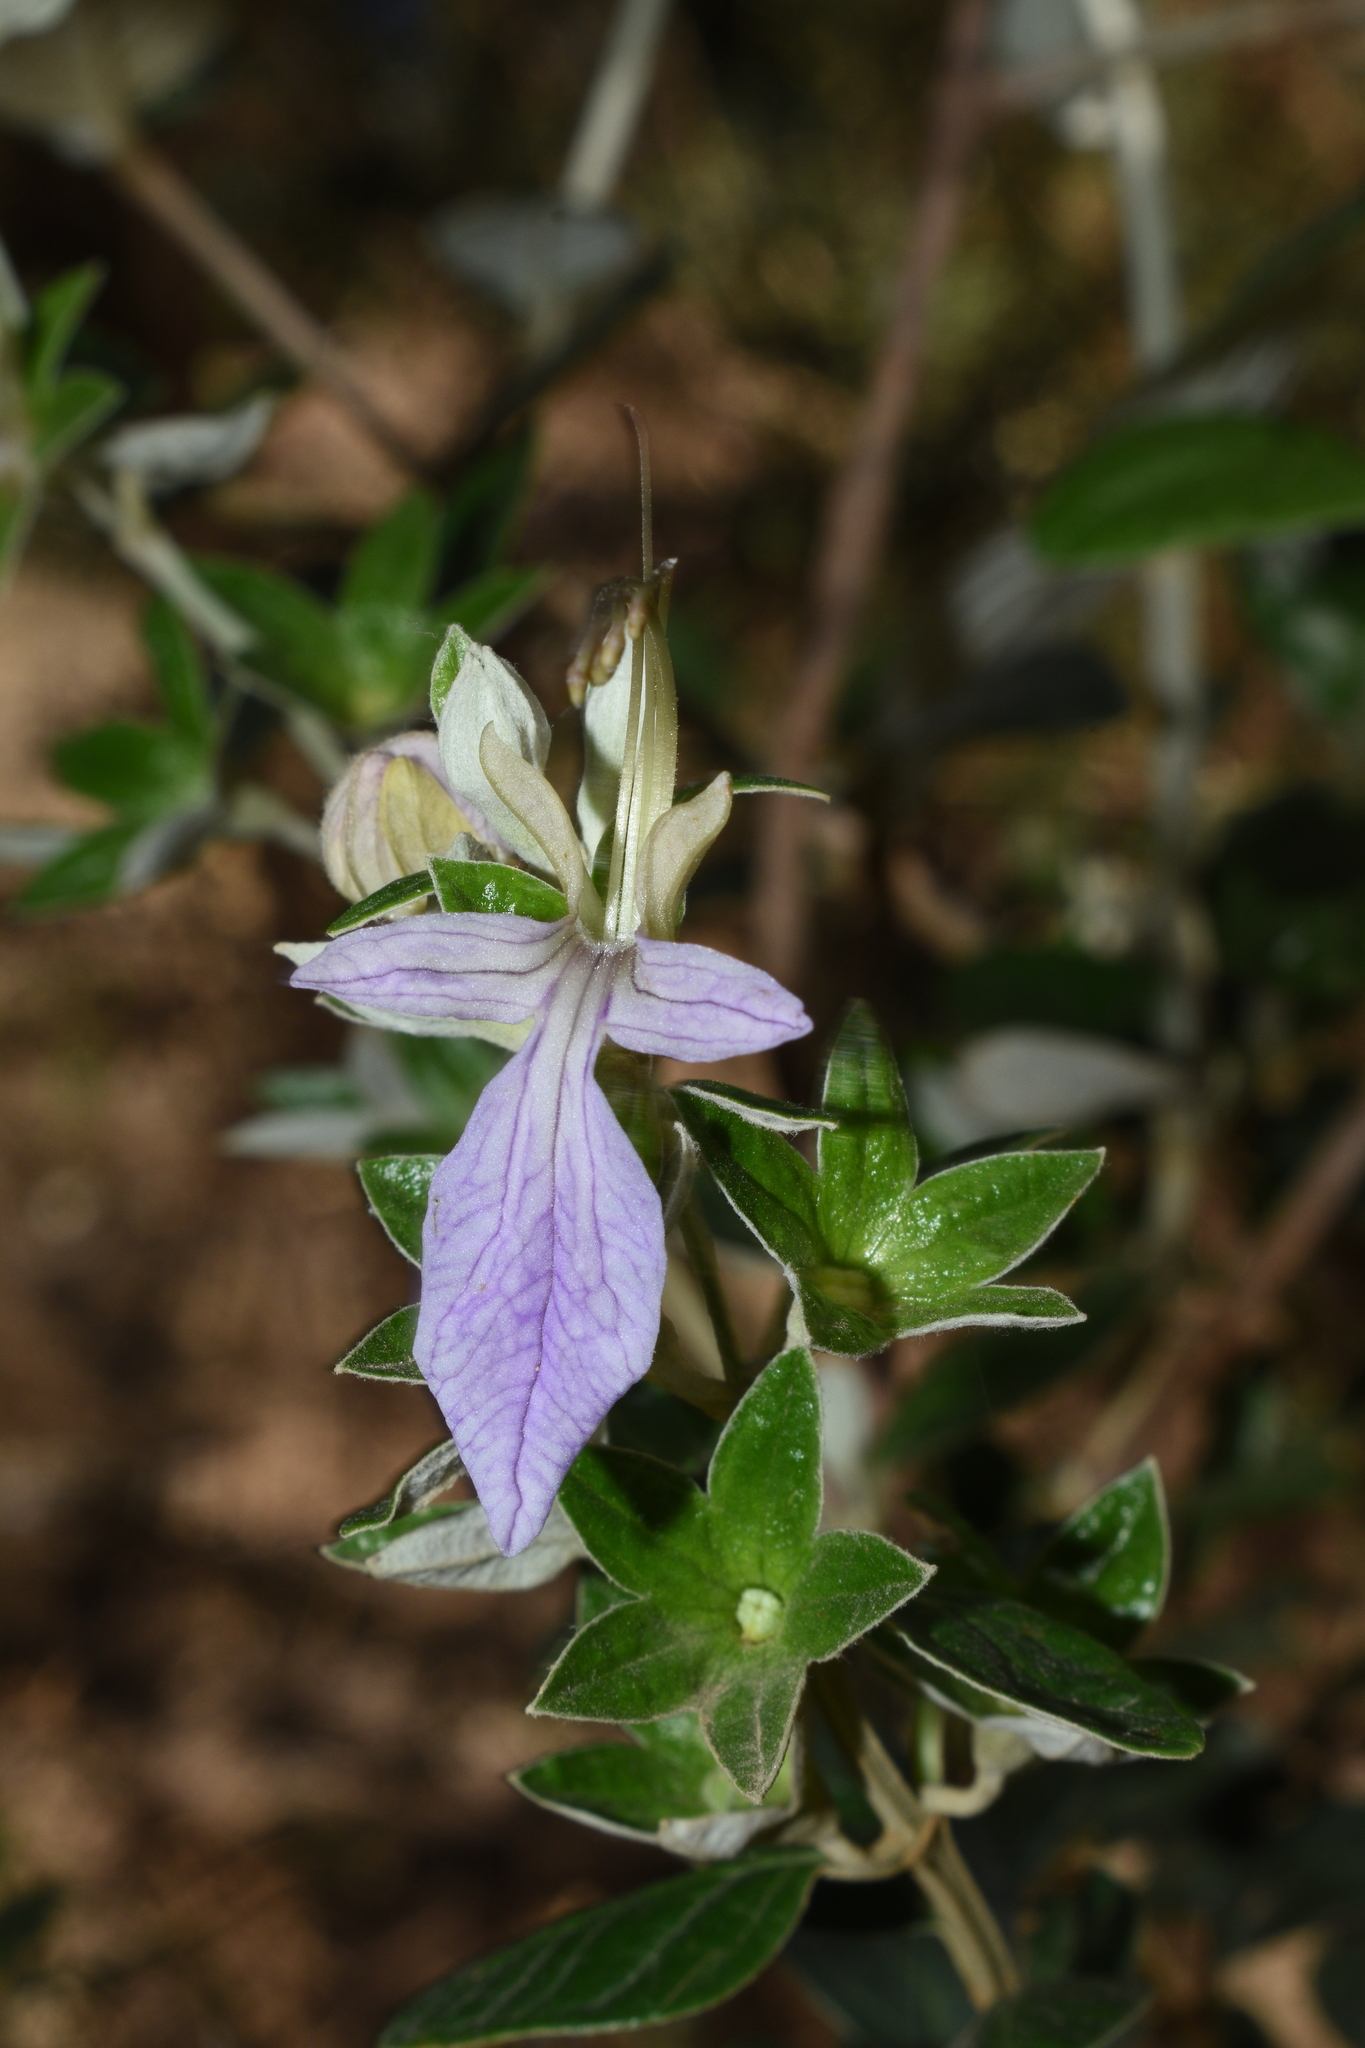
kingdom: Plantae
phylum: Tracheophyta
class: Magnoliopsida
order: Lamiales
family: Lamiaceae
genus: Teucrium
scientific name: Teucrium fruticans
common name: Shrubby germander
